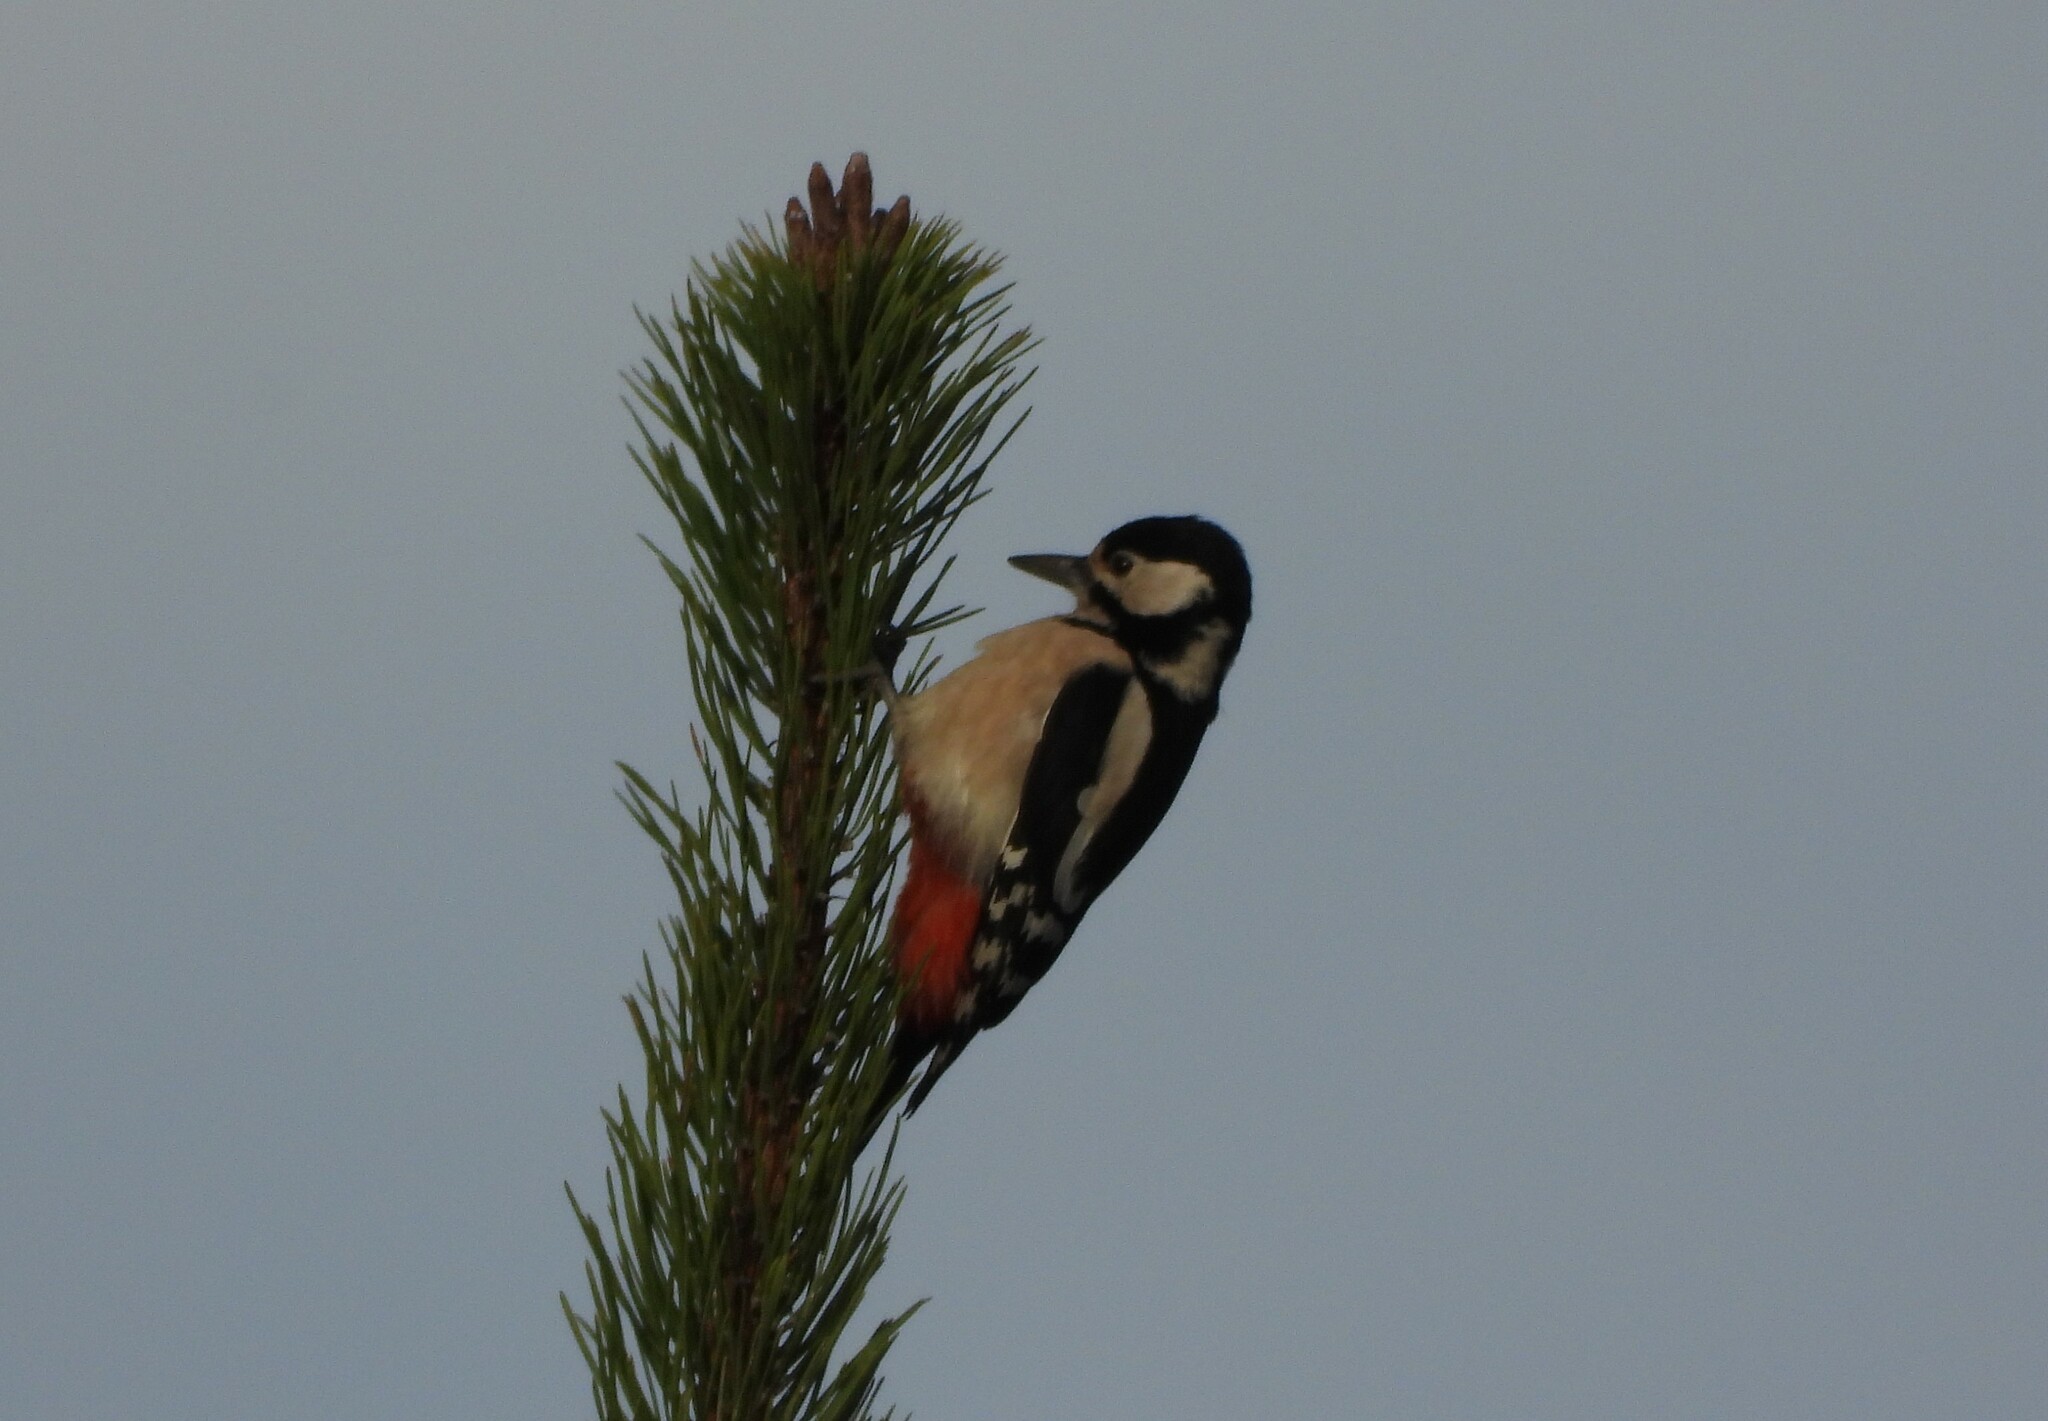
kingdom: Animalia
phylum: Chordata
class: Aves
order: Piciformes
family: Picidae
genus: Dendrocopos
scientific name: Dendrocopos major
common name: Great spotted woodpecker
